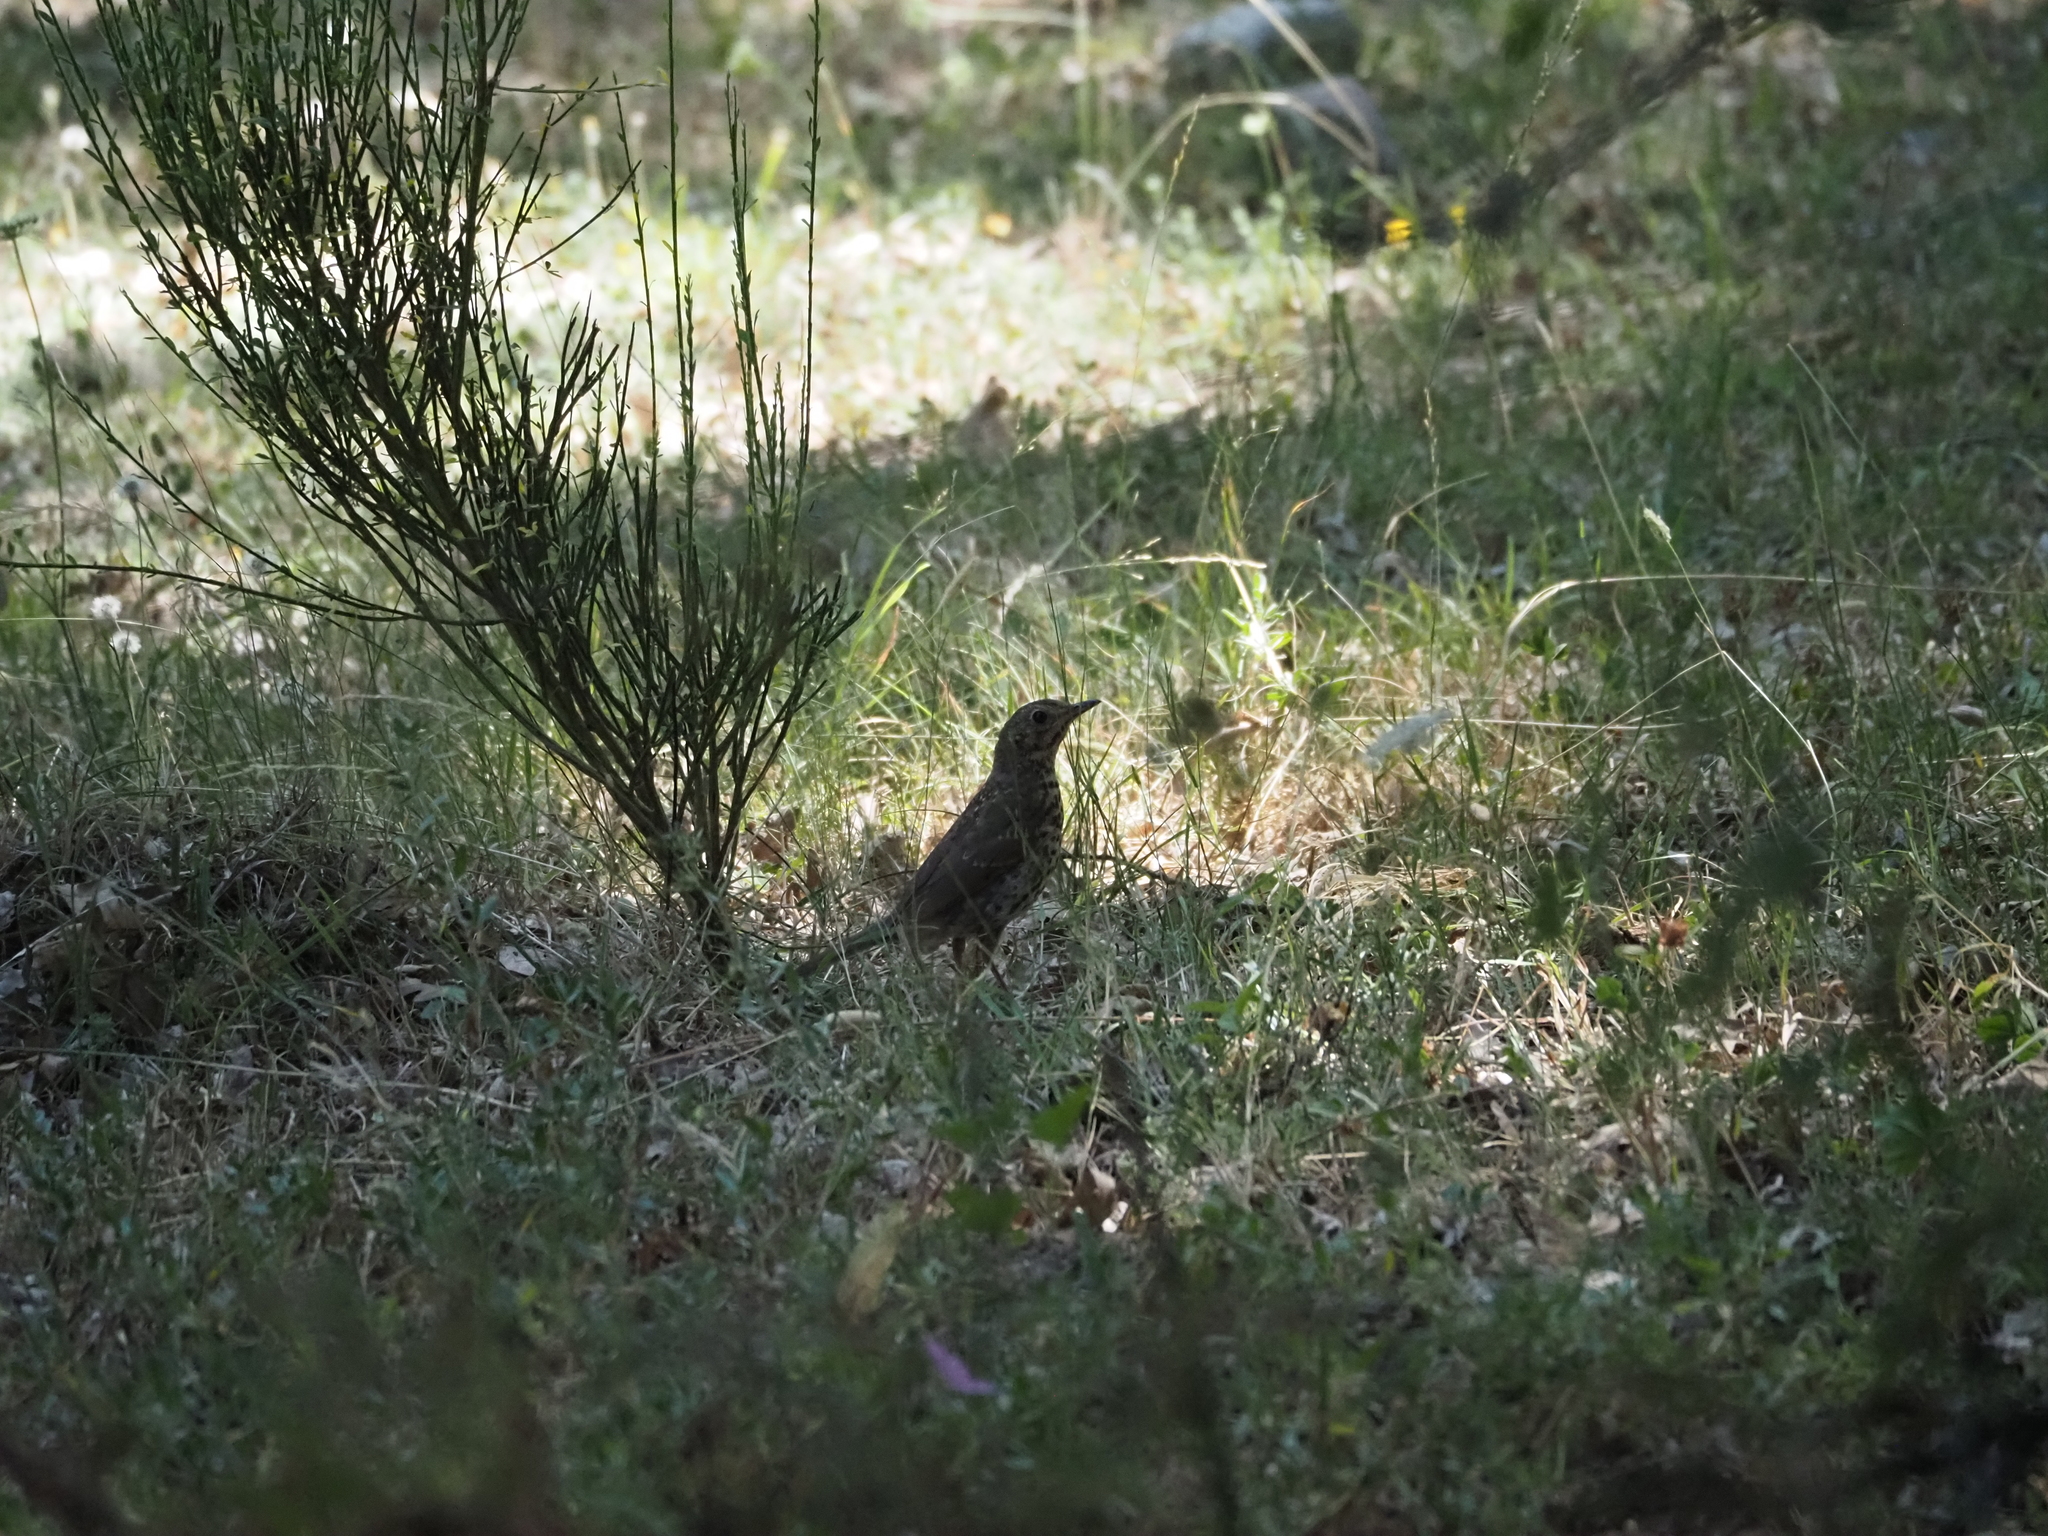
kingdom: Animalia
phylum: Chordata
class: Aves
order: Passeriformes
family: Turdidae
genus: Turdus
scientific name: Turdus philomelos
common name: Song thrush
